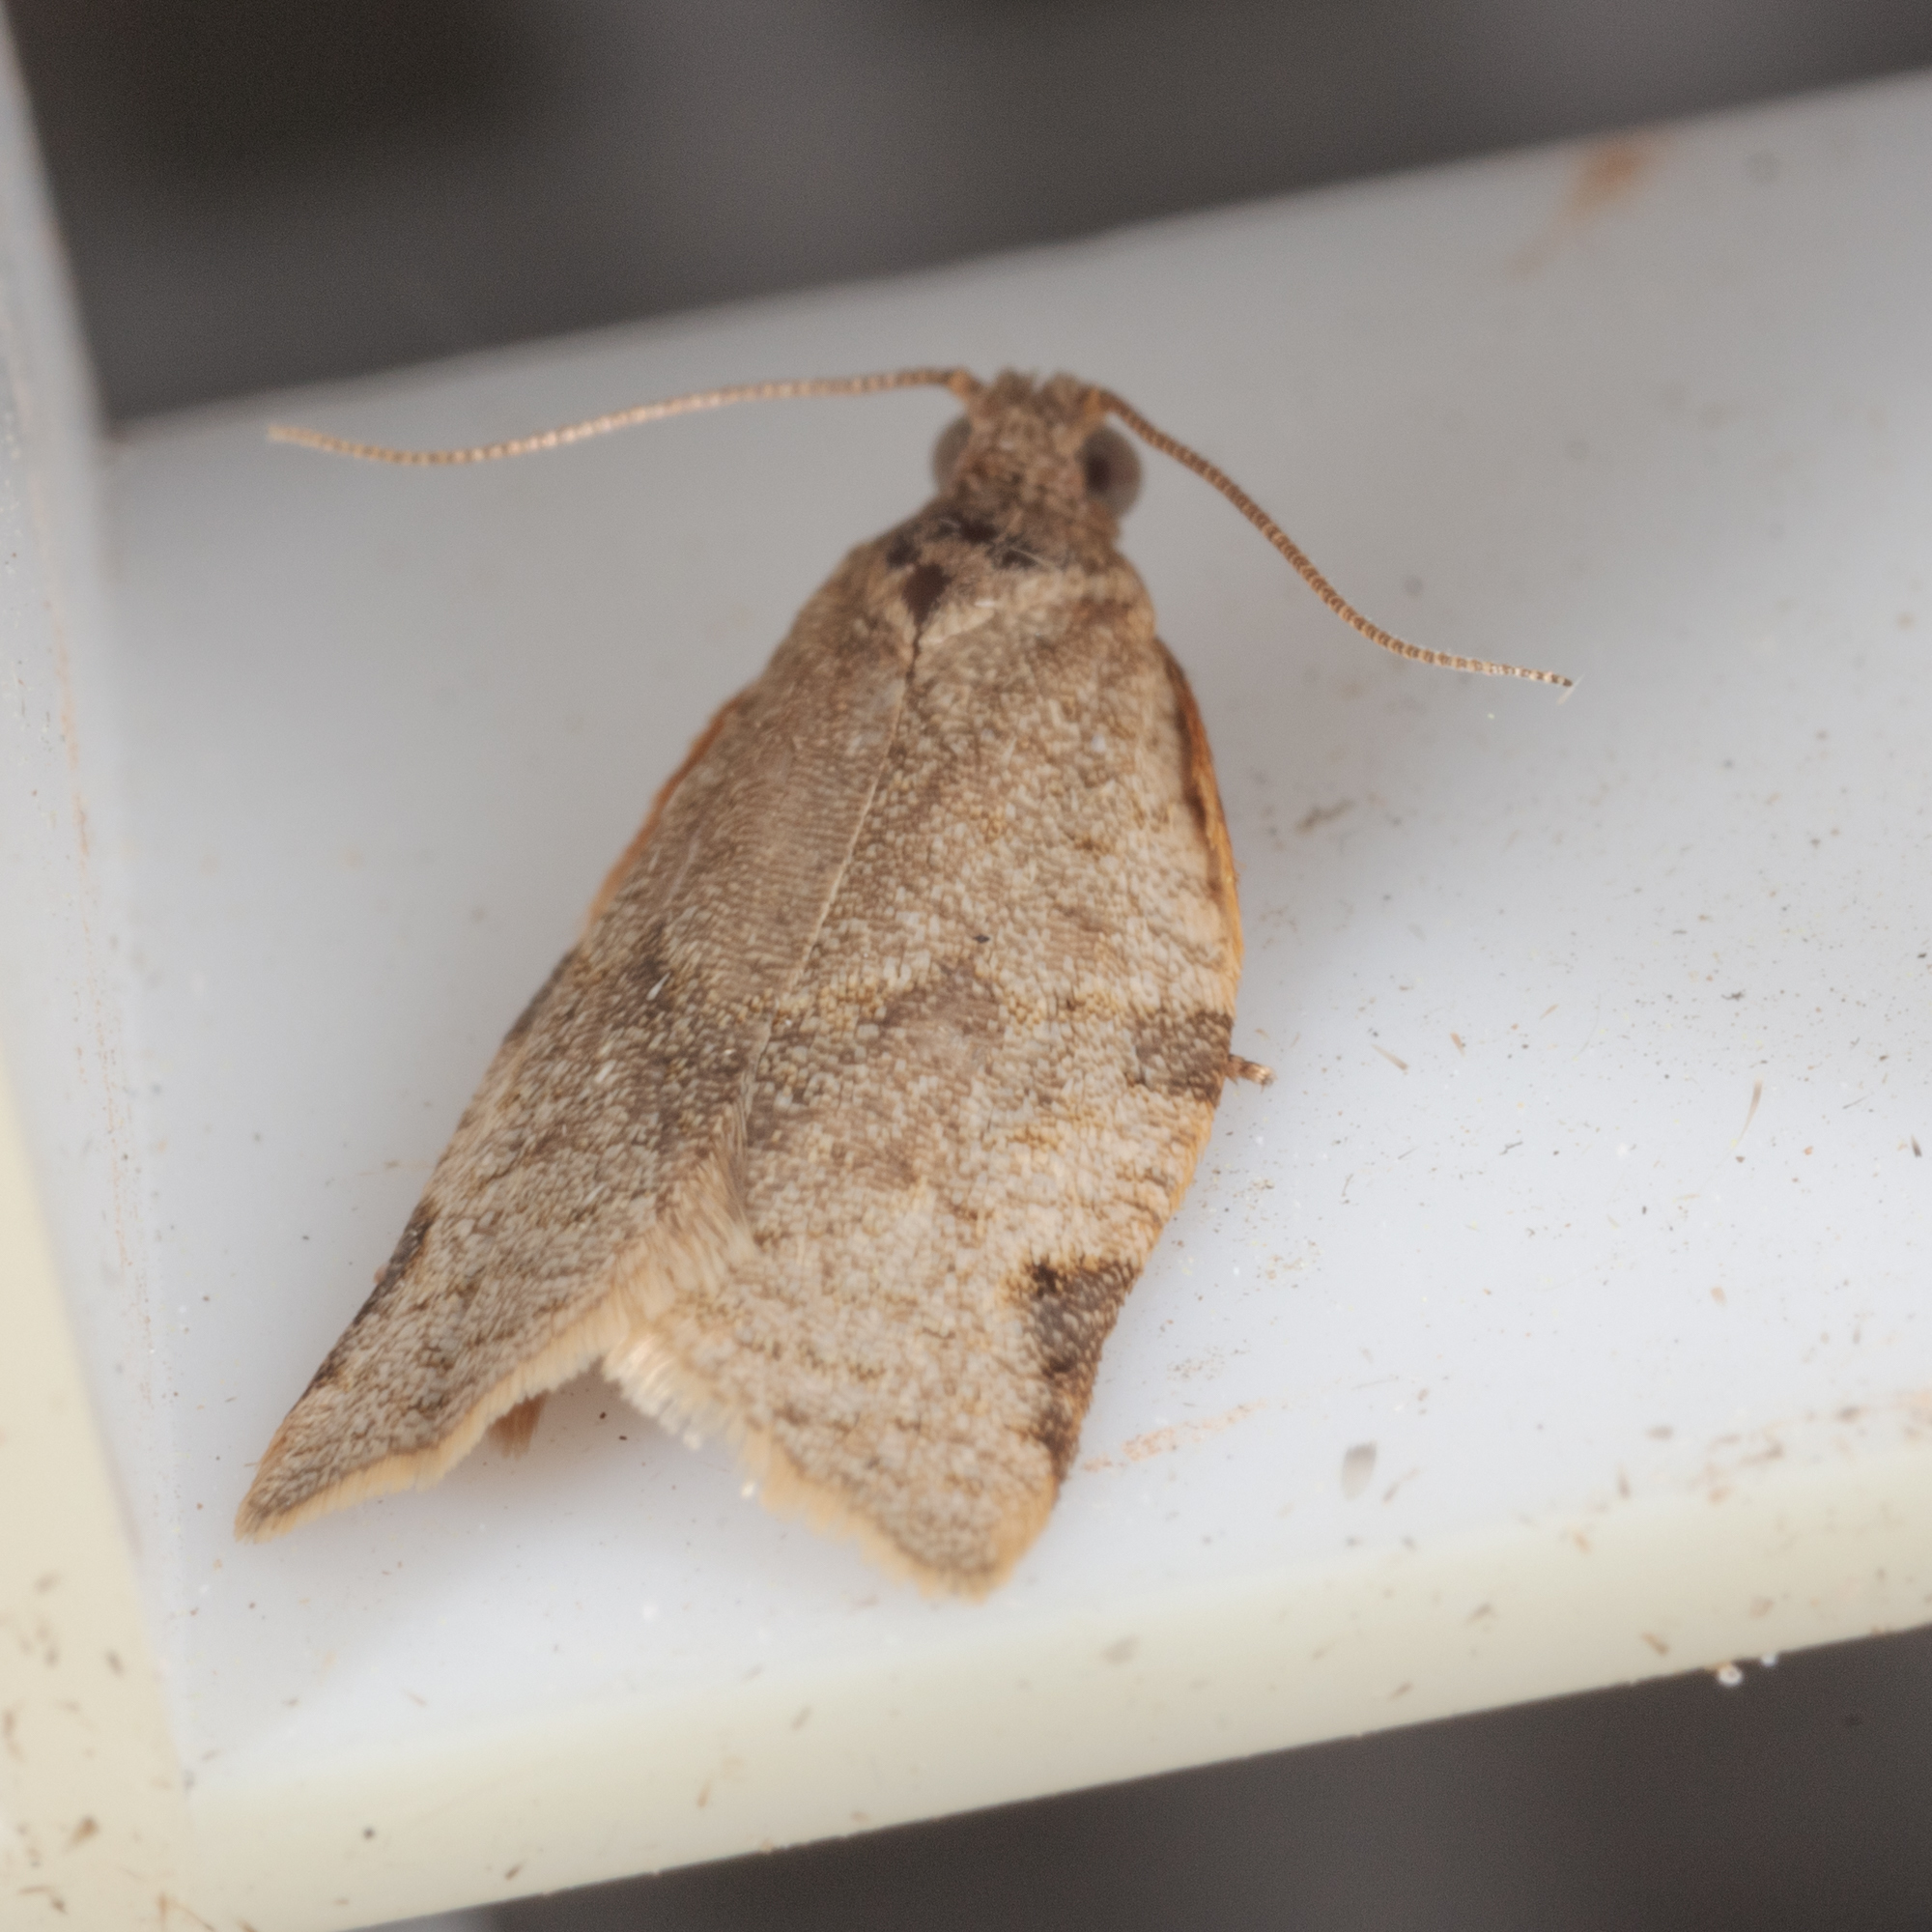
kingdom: Animalia
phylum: Arthropoda
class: Insecta
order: Lepidoptera
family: Tortricidae
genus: Clepsis
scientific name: Clepsis peritana
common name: Garden tortrix
